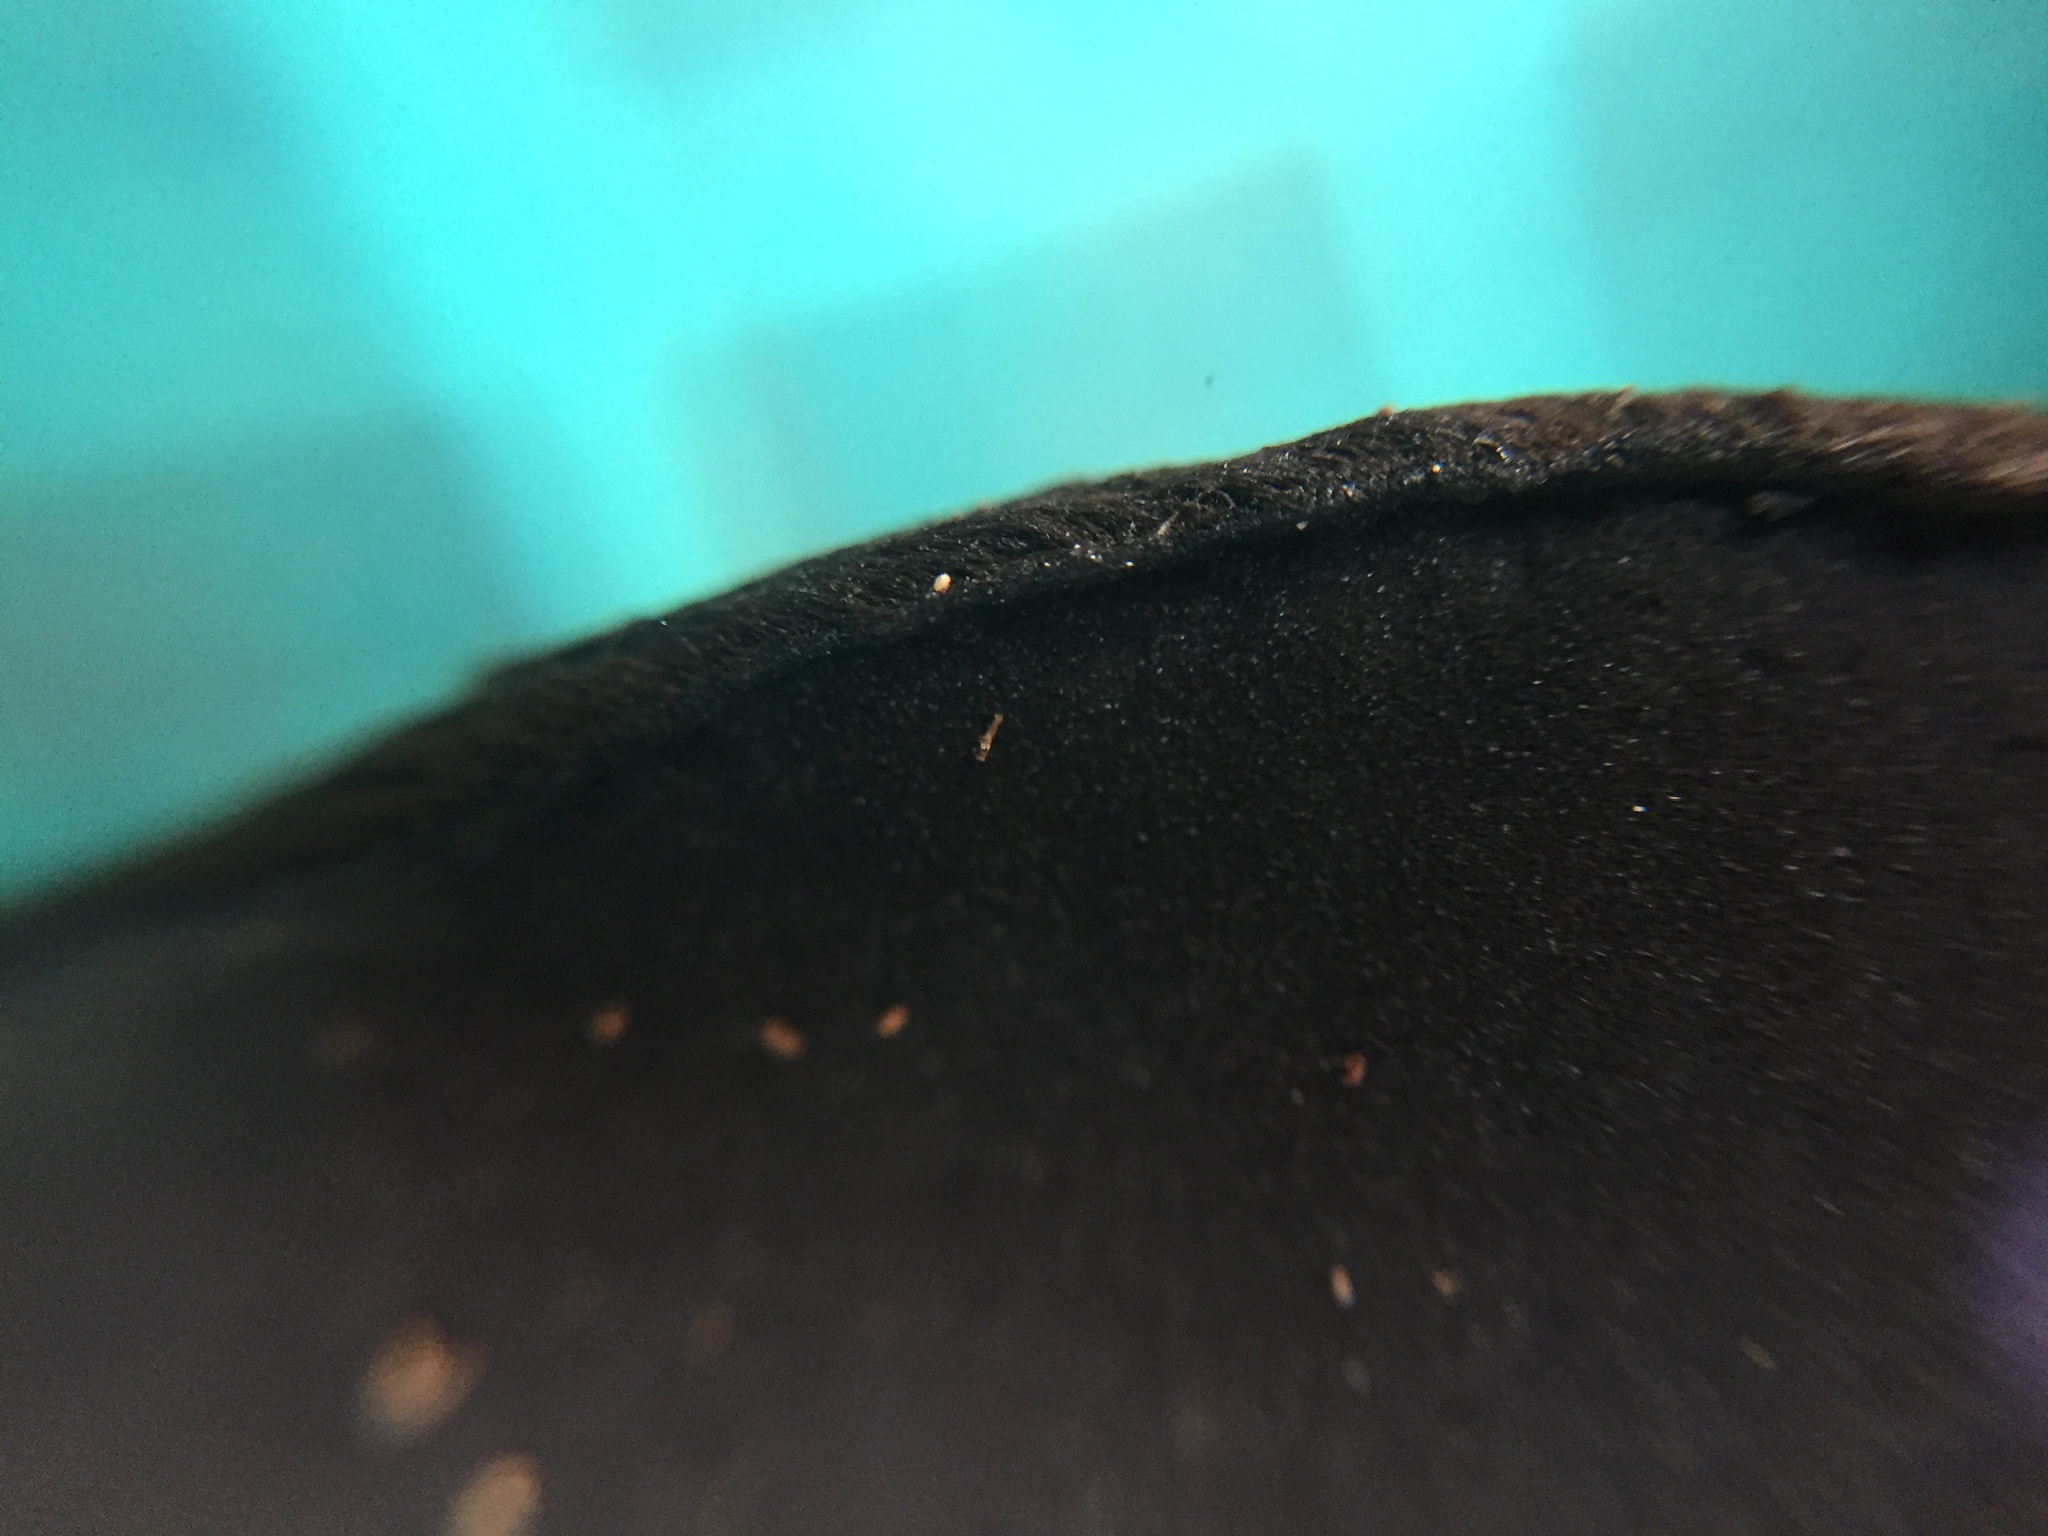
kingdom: Fungi
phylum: Ascomycota
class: Pezizomycetes
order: Pezizales
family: Pyronemataceae
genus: Trichaleurina
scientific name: Trichaleurina tenuispora
